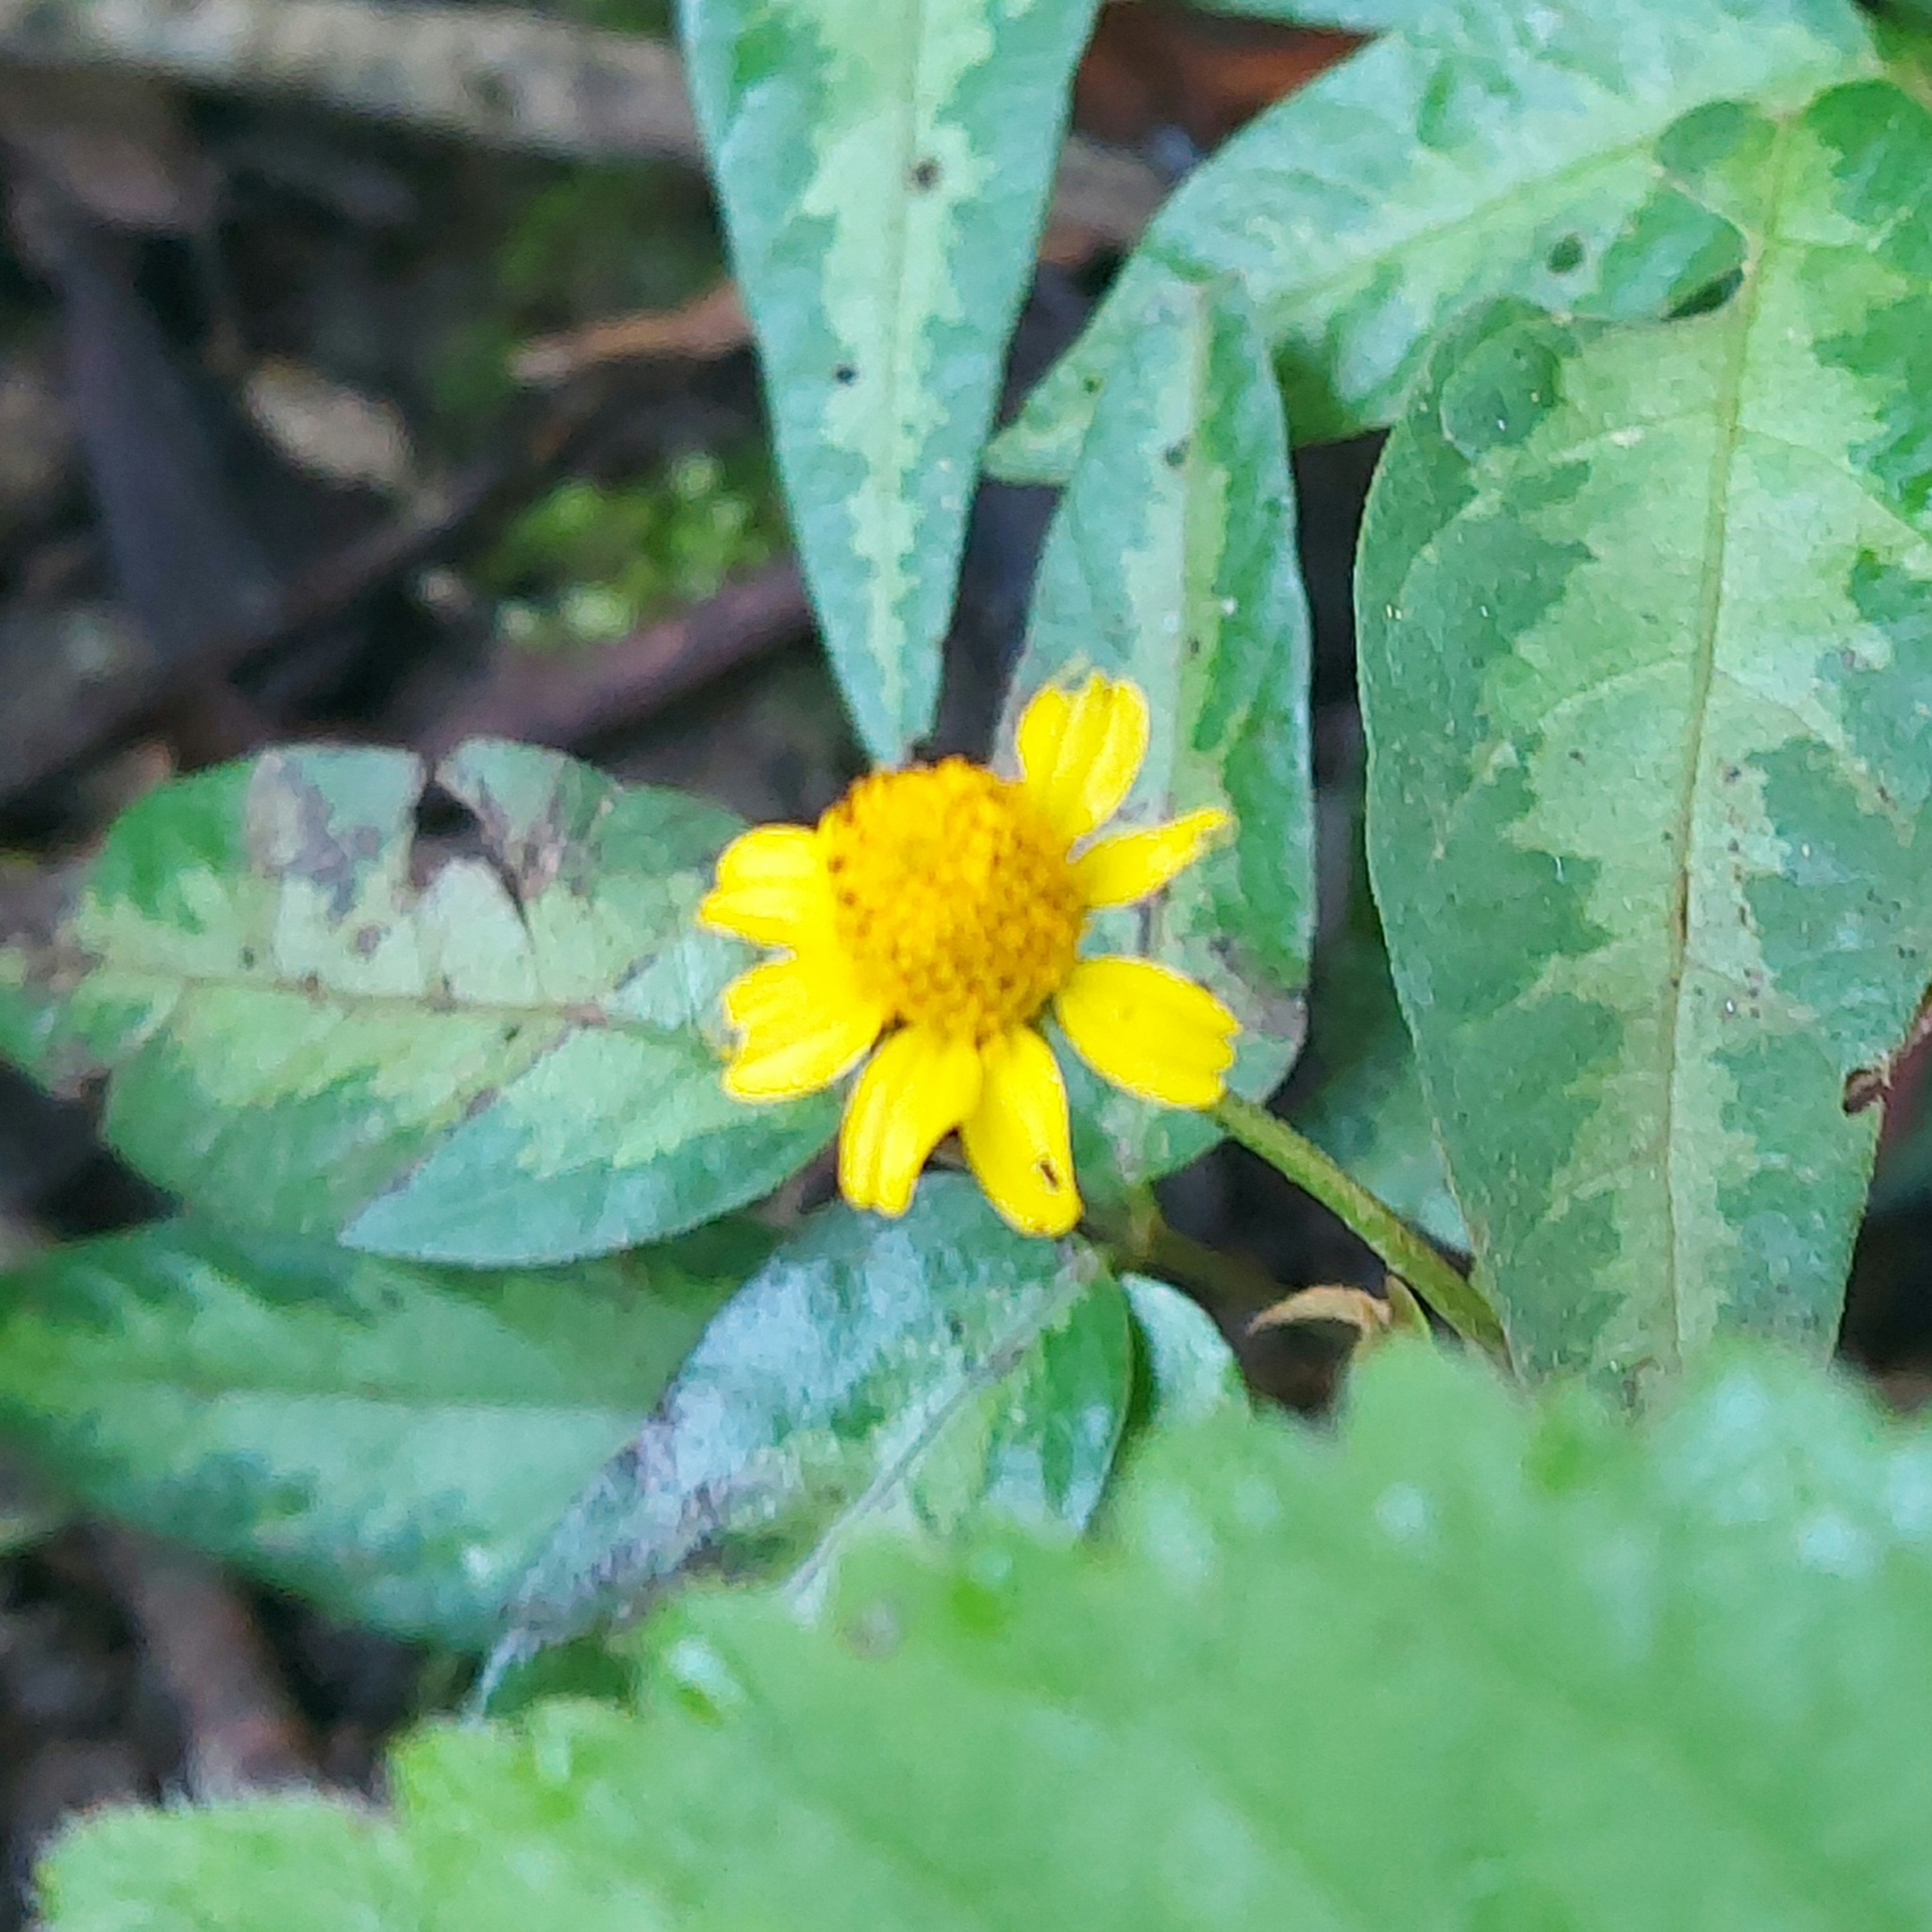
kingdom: Plantae
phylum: Tracheophyta
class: Magnoliopsida
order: Asterales
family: Asteraceae
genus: Acmella
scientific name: Acmella repens
